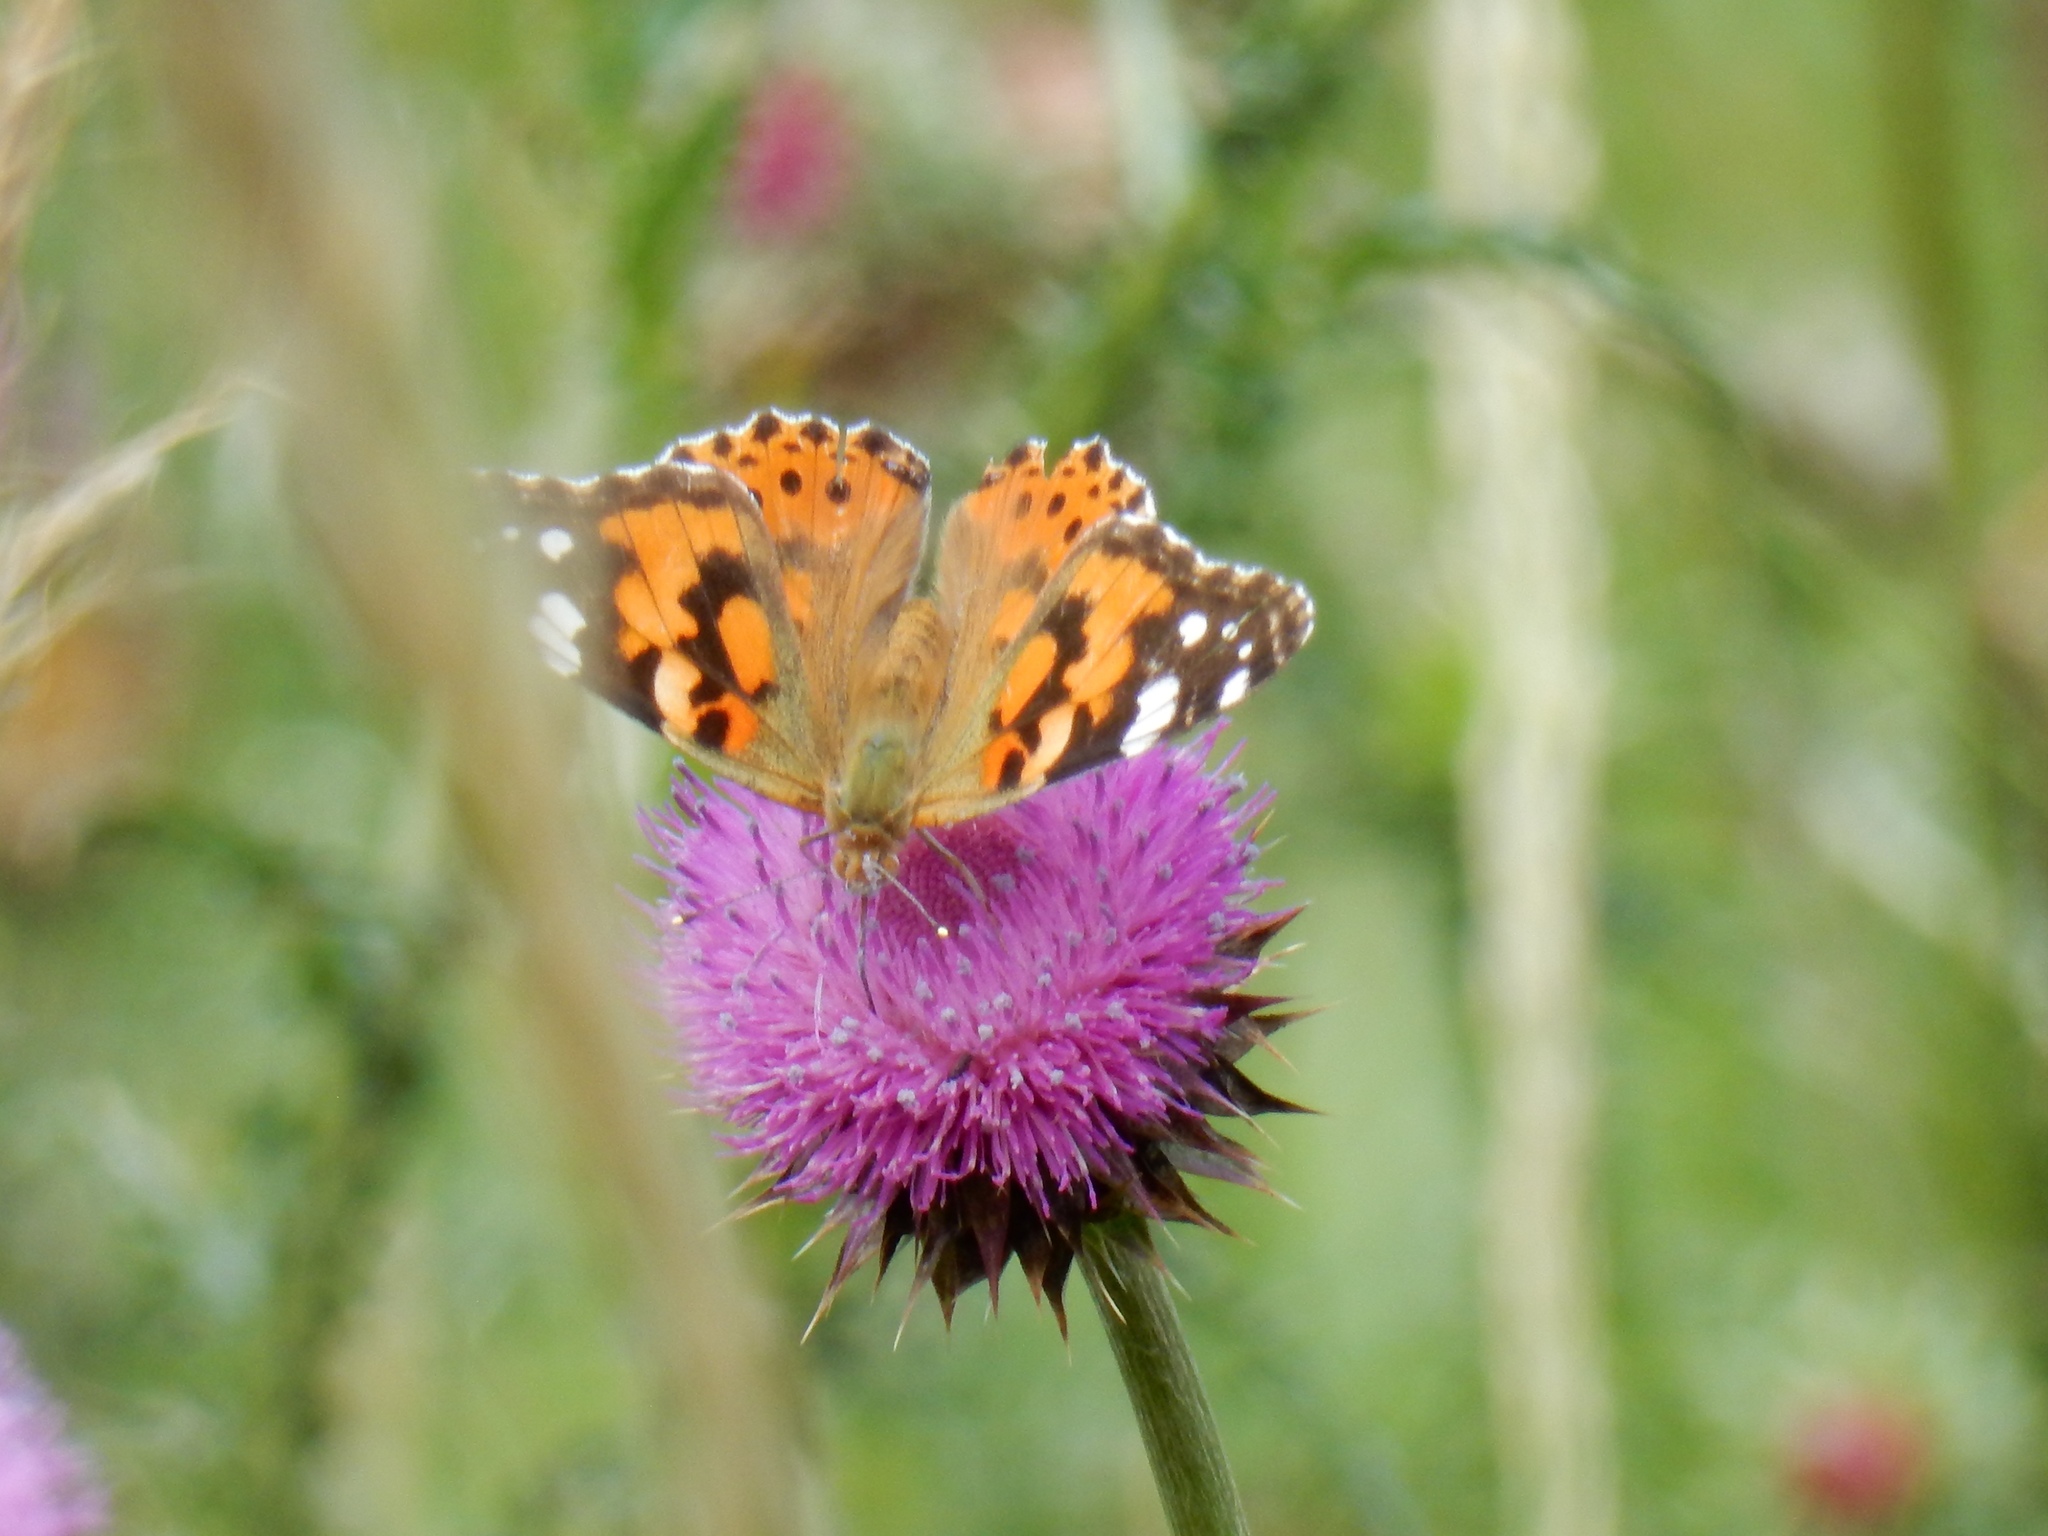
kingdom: Animalia
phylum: Arthropoda
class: Insecta
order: Lepidoptera
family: Nymphalidae
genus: Vanessa
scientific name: Vanessa cardui
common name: Painted lady
